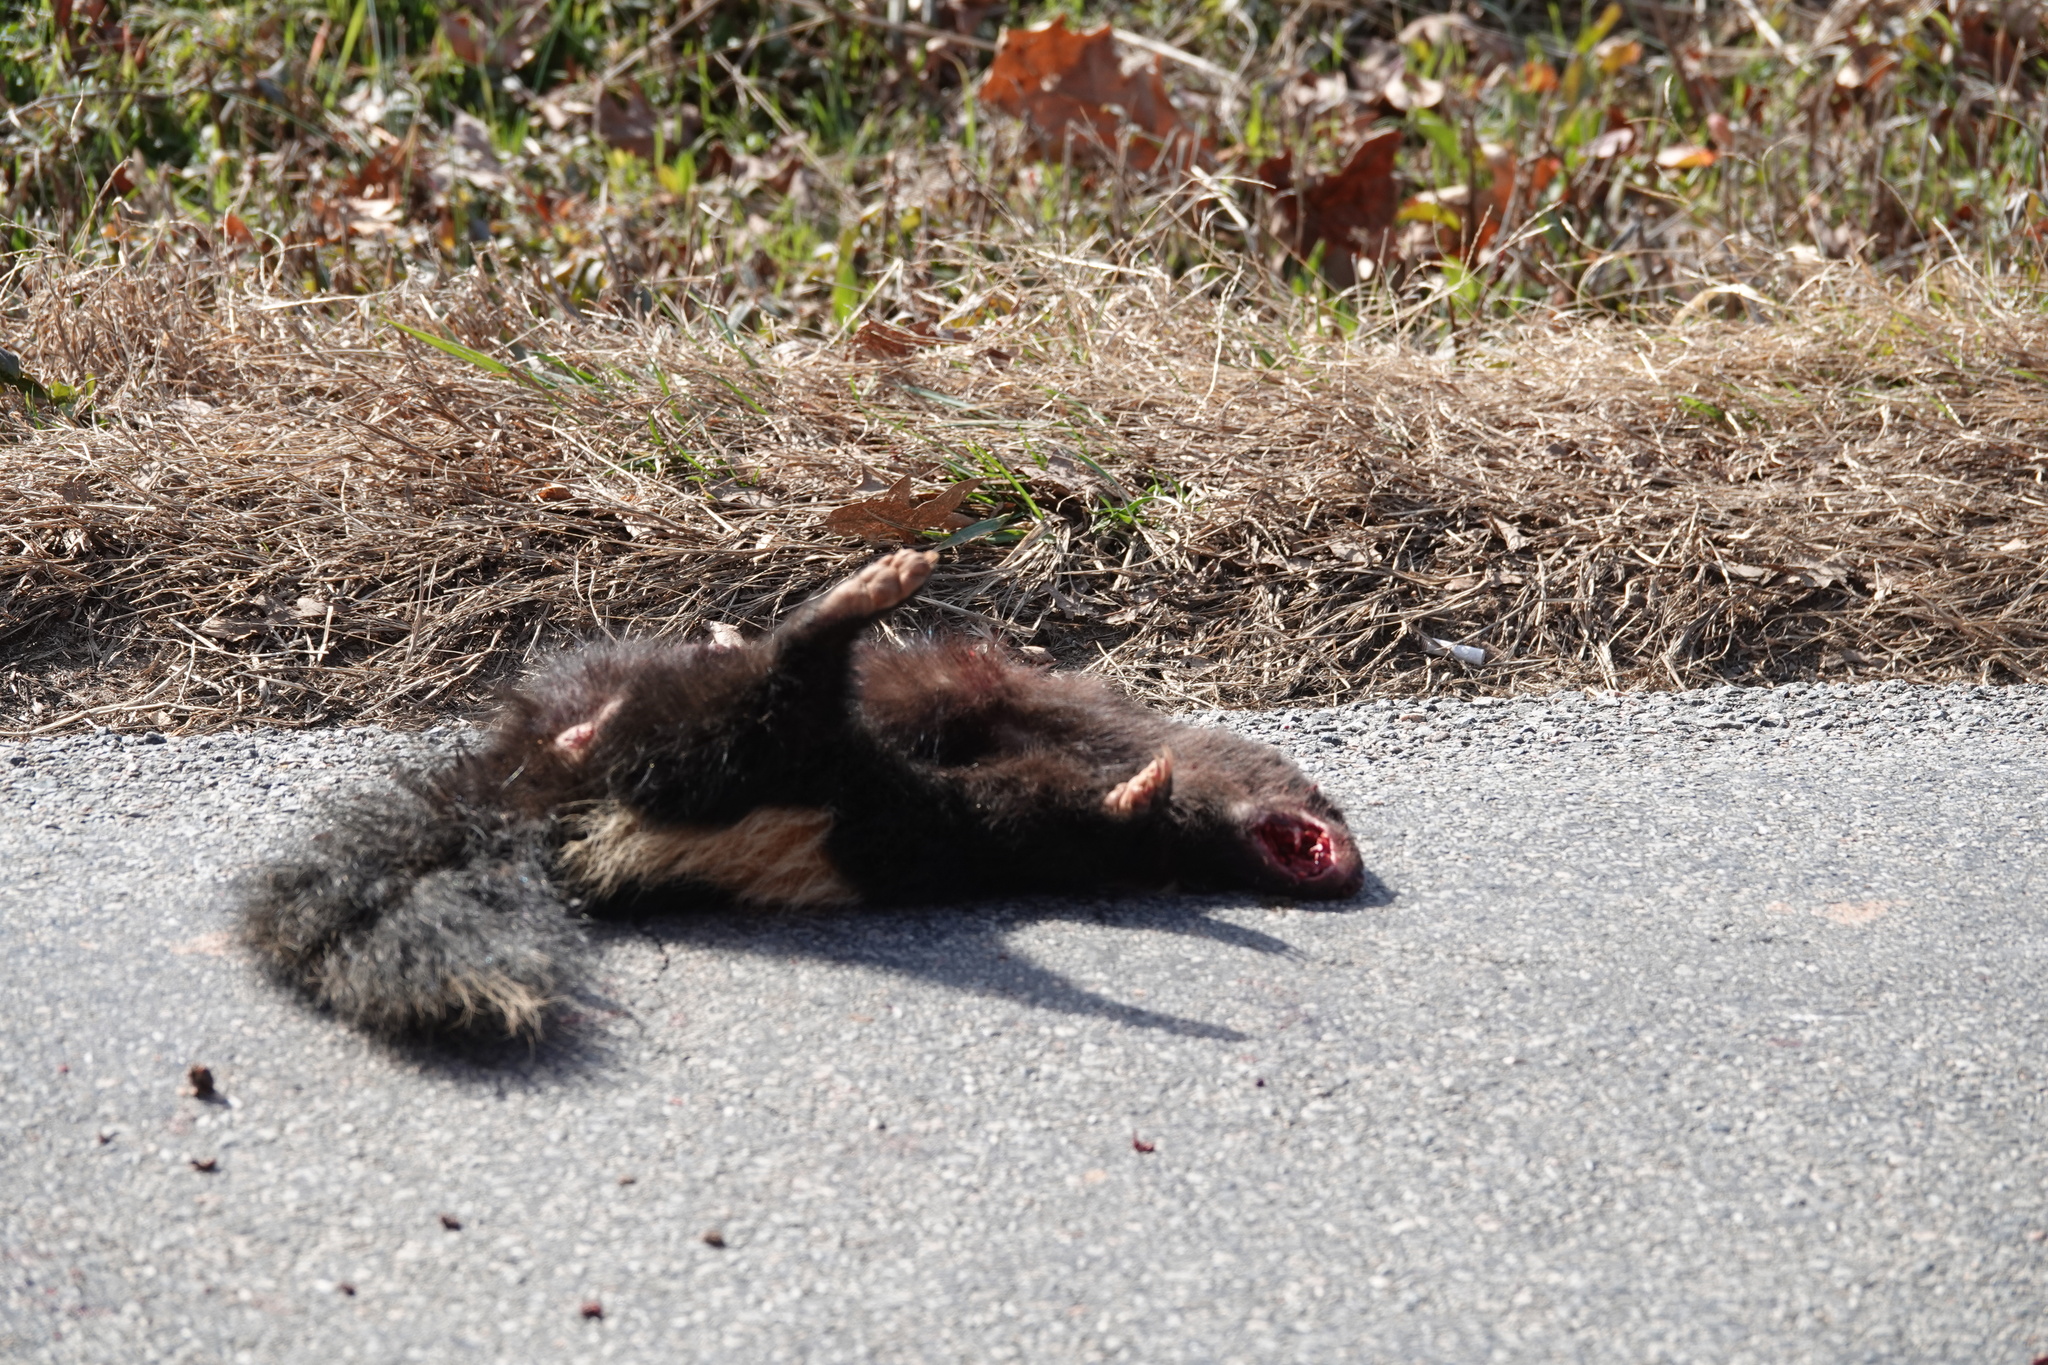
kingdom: Animalia
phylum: Chordata
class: Mammalia
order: Carnivora
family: Mephitidae
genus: Mephitis
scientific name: Mephitis mephitis
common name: Striped skunk
